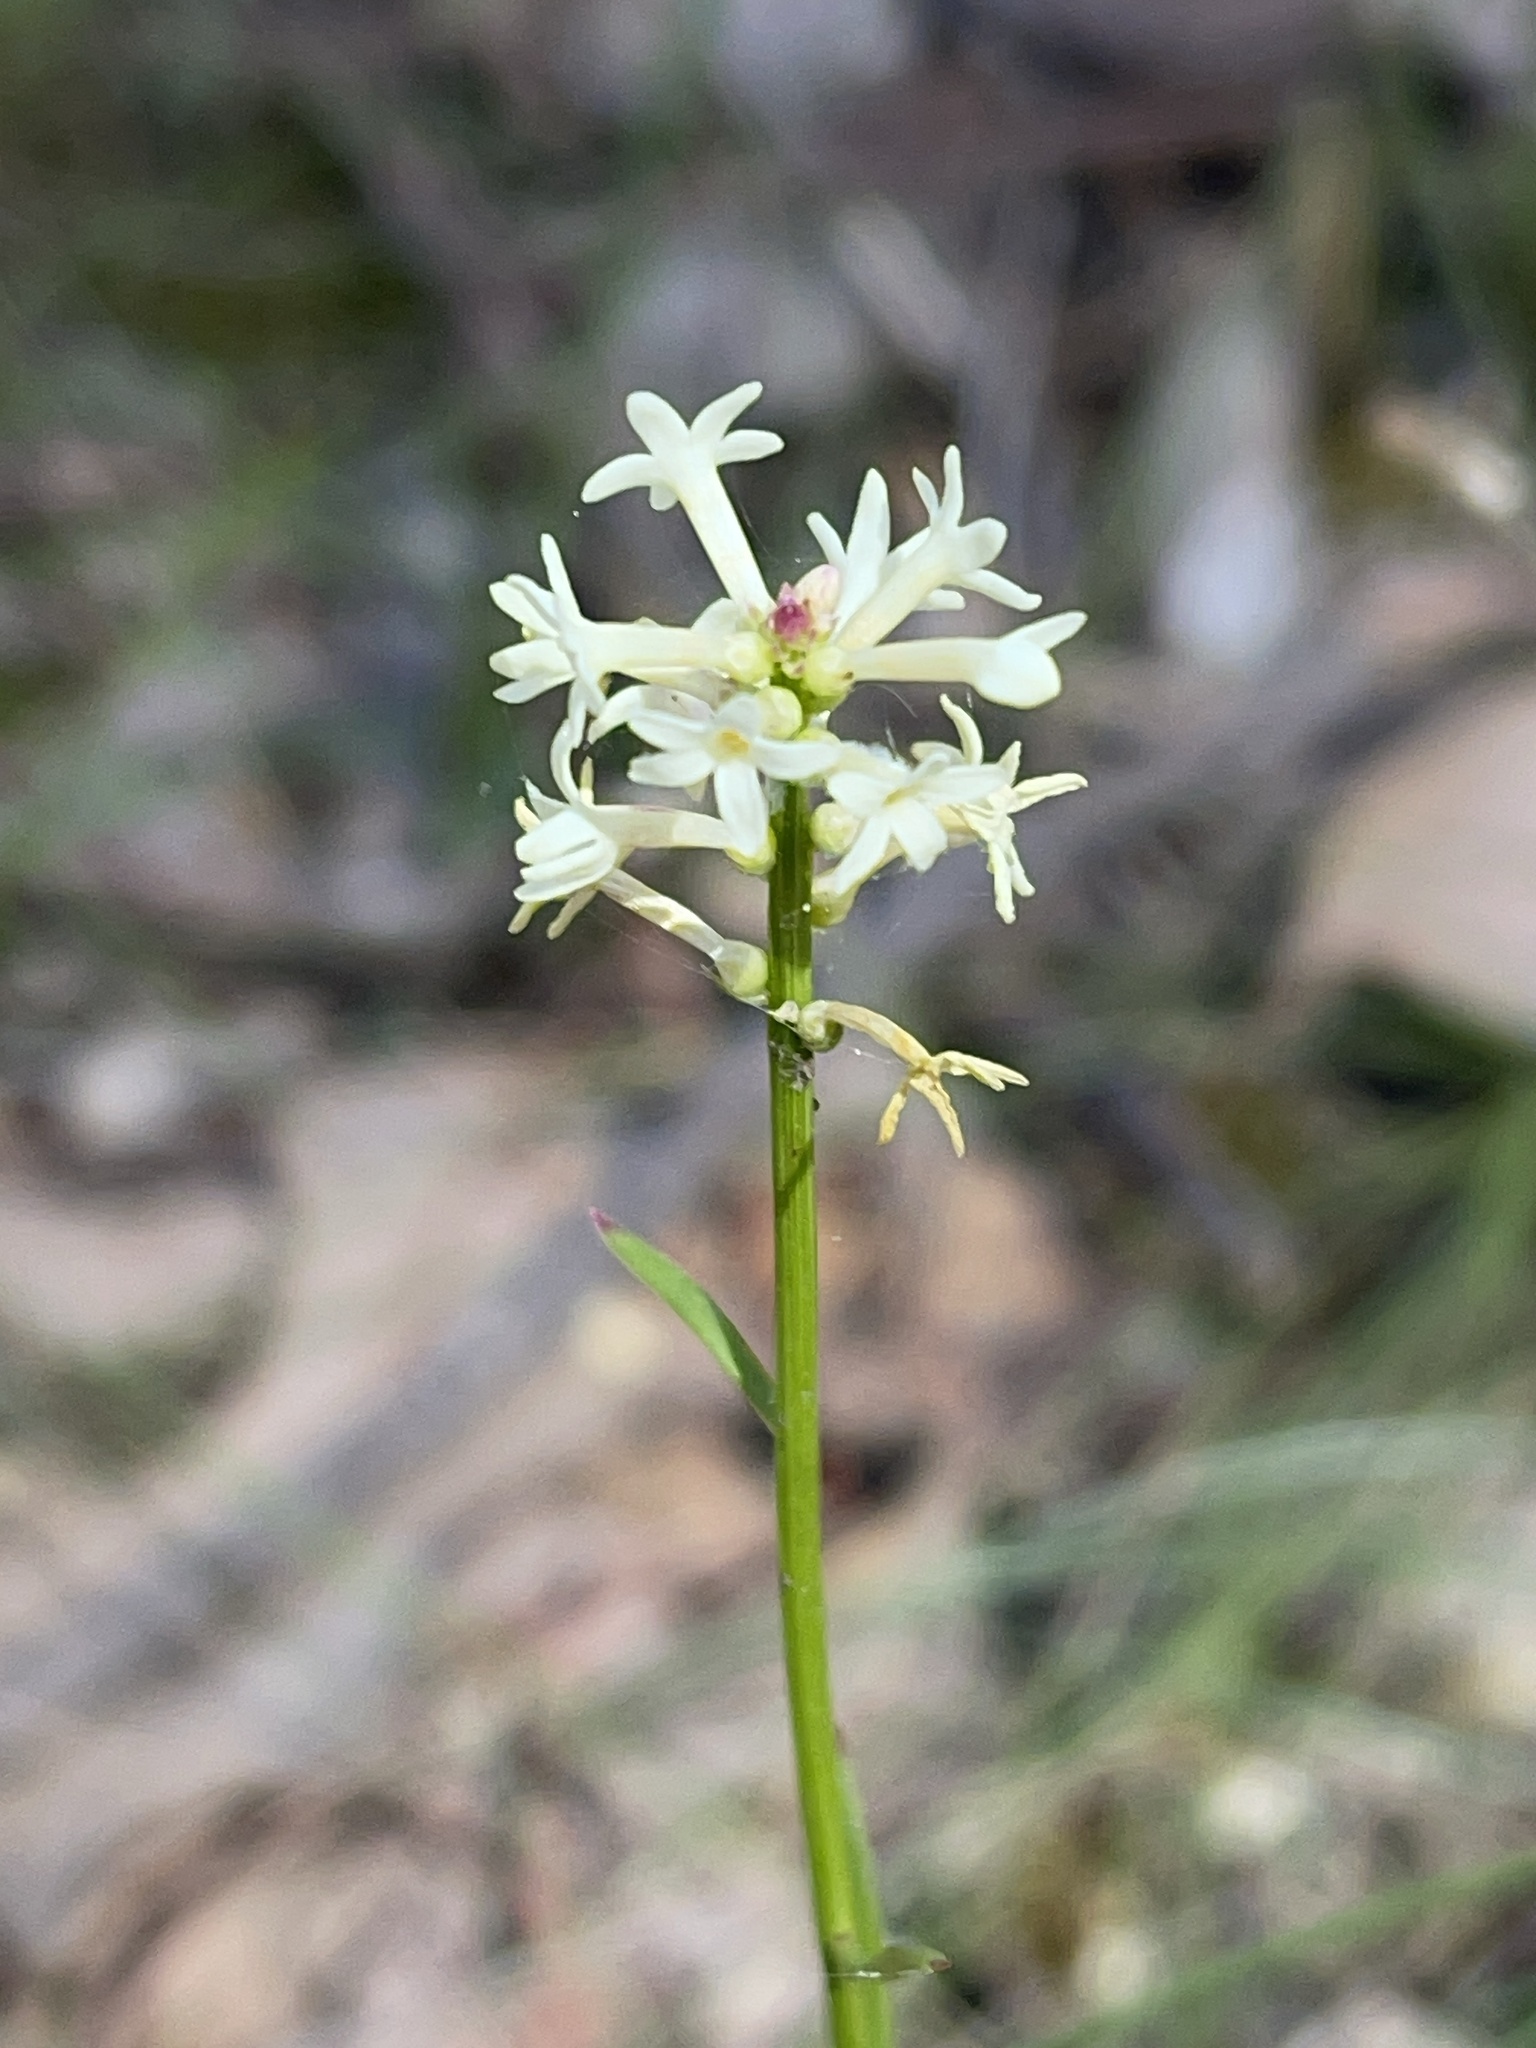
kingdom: Plantae
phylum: Tracheophyta
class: Magnoliopsida
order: Celastrales
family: Celastraceae
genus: Stackhousia
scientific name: Stackhousia monogyna
